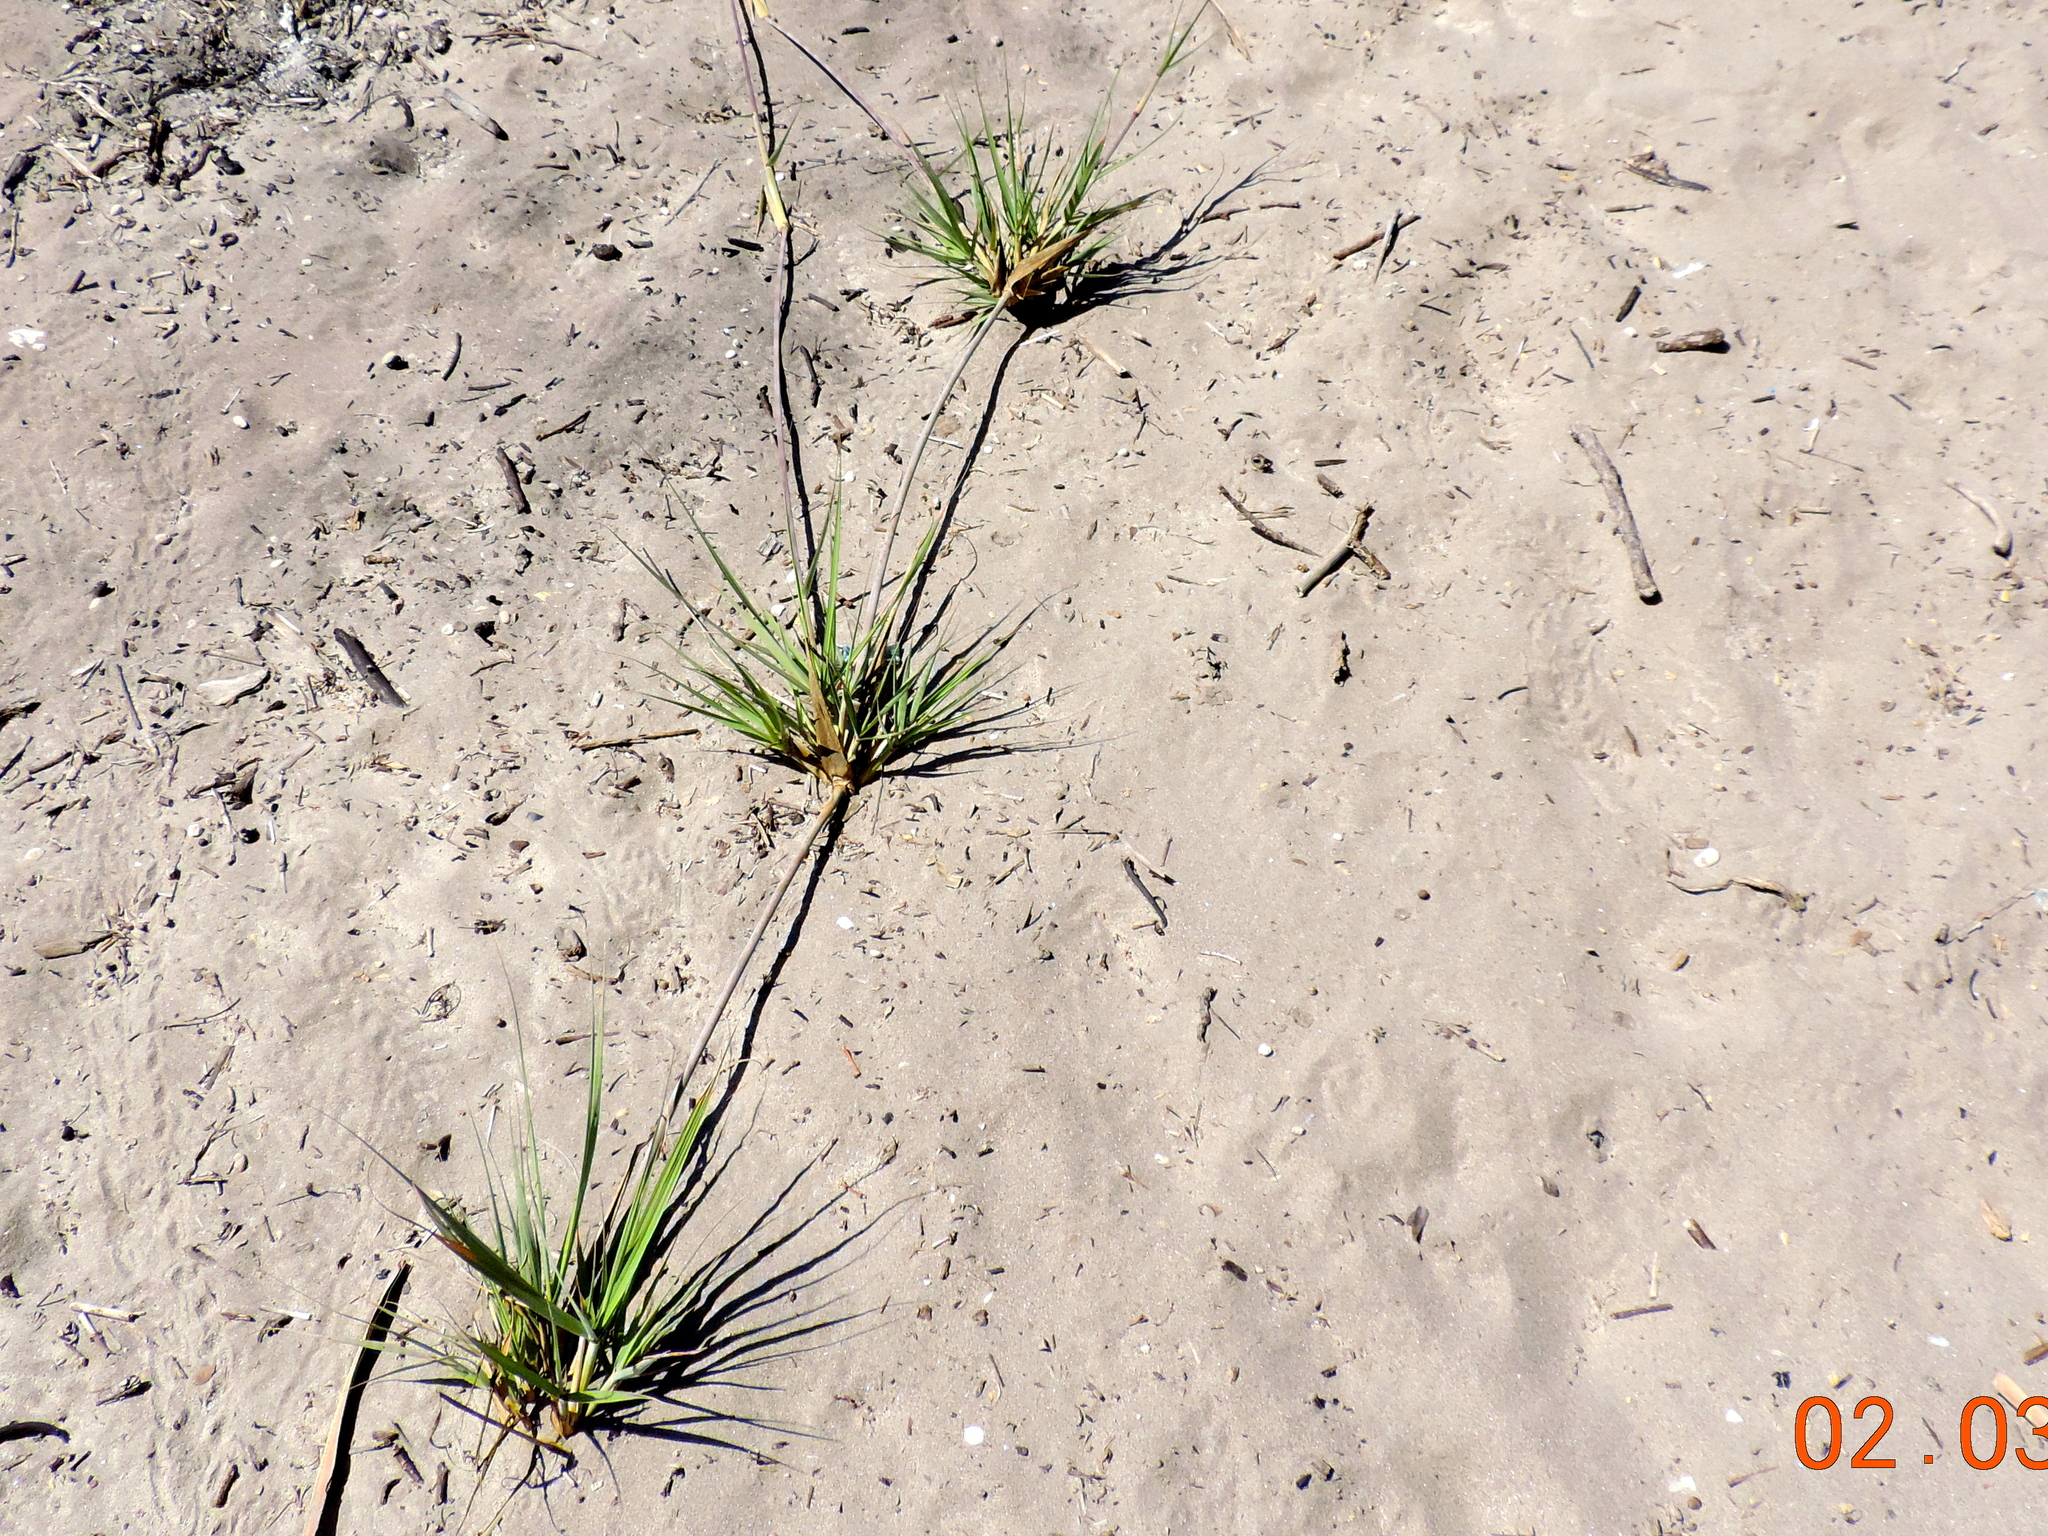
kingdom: Plantae
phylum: Tracheophyta
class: Liliopsida
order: Poales
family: Poaceae
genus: Distichlis
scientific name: Distichlis spicata
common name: Saltgrass
